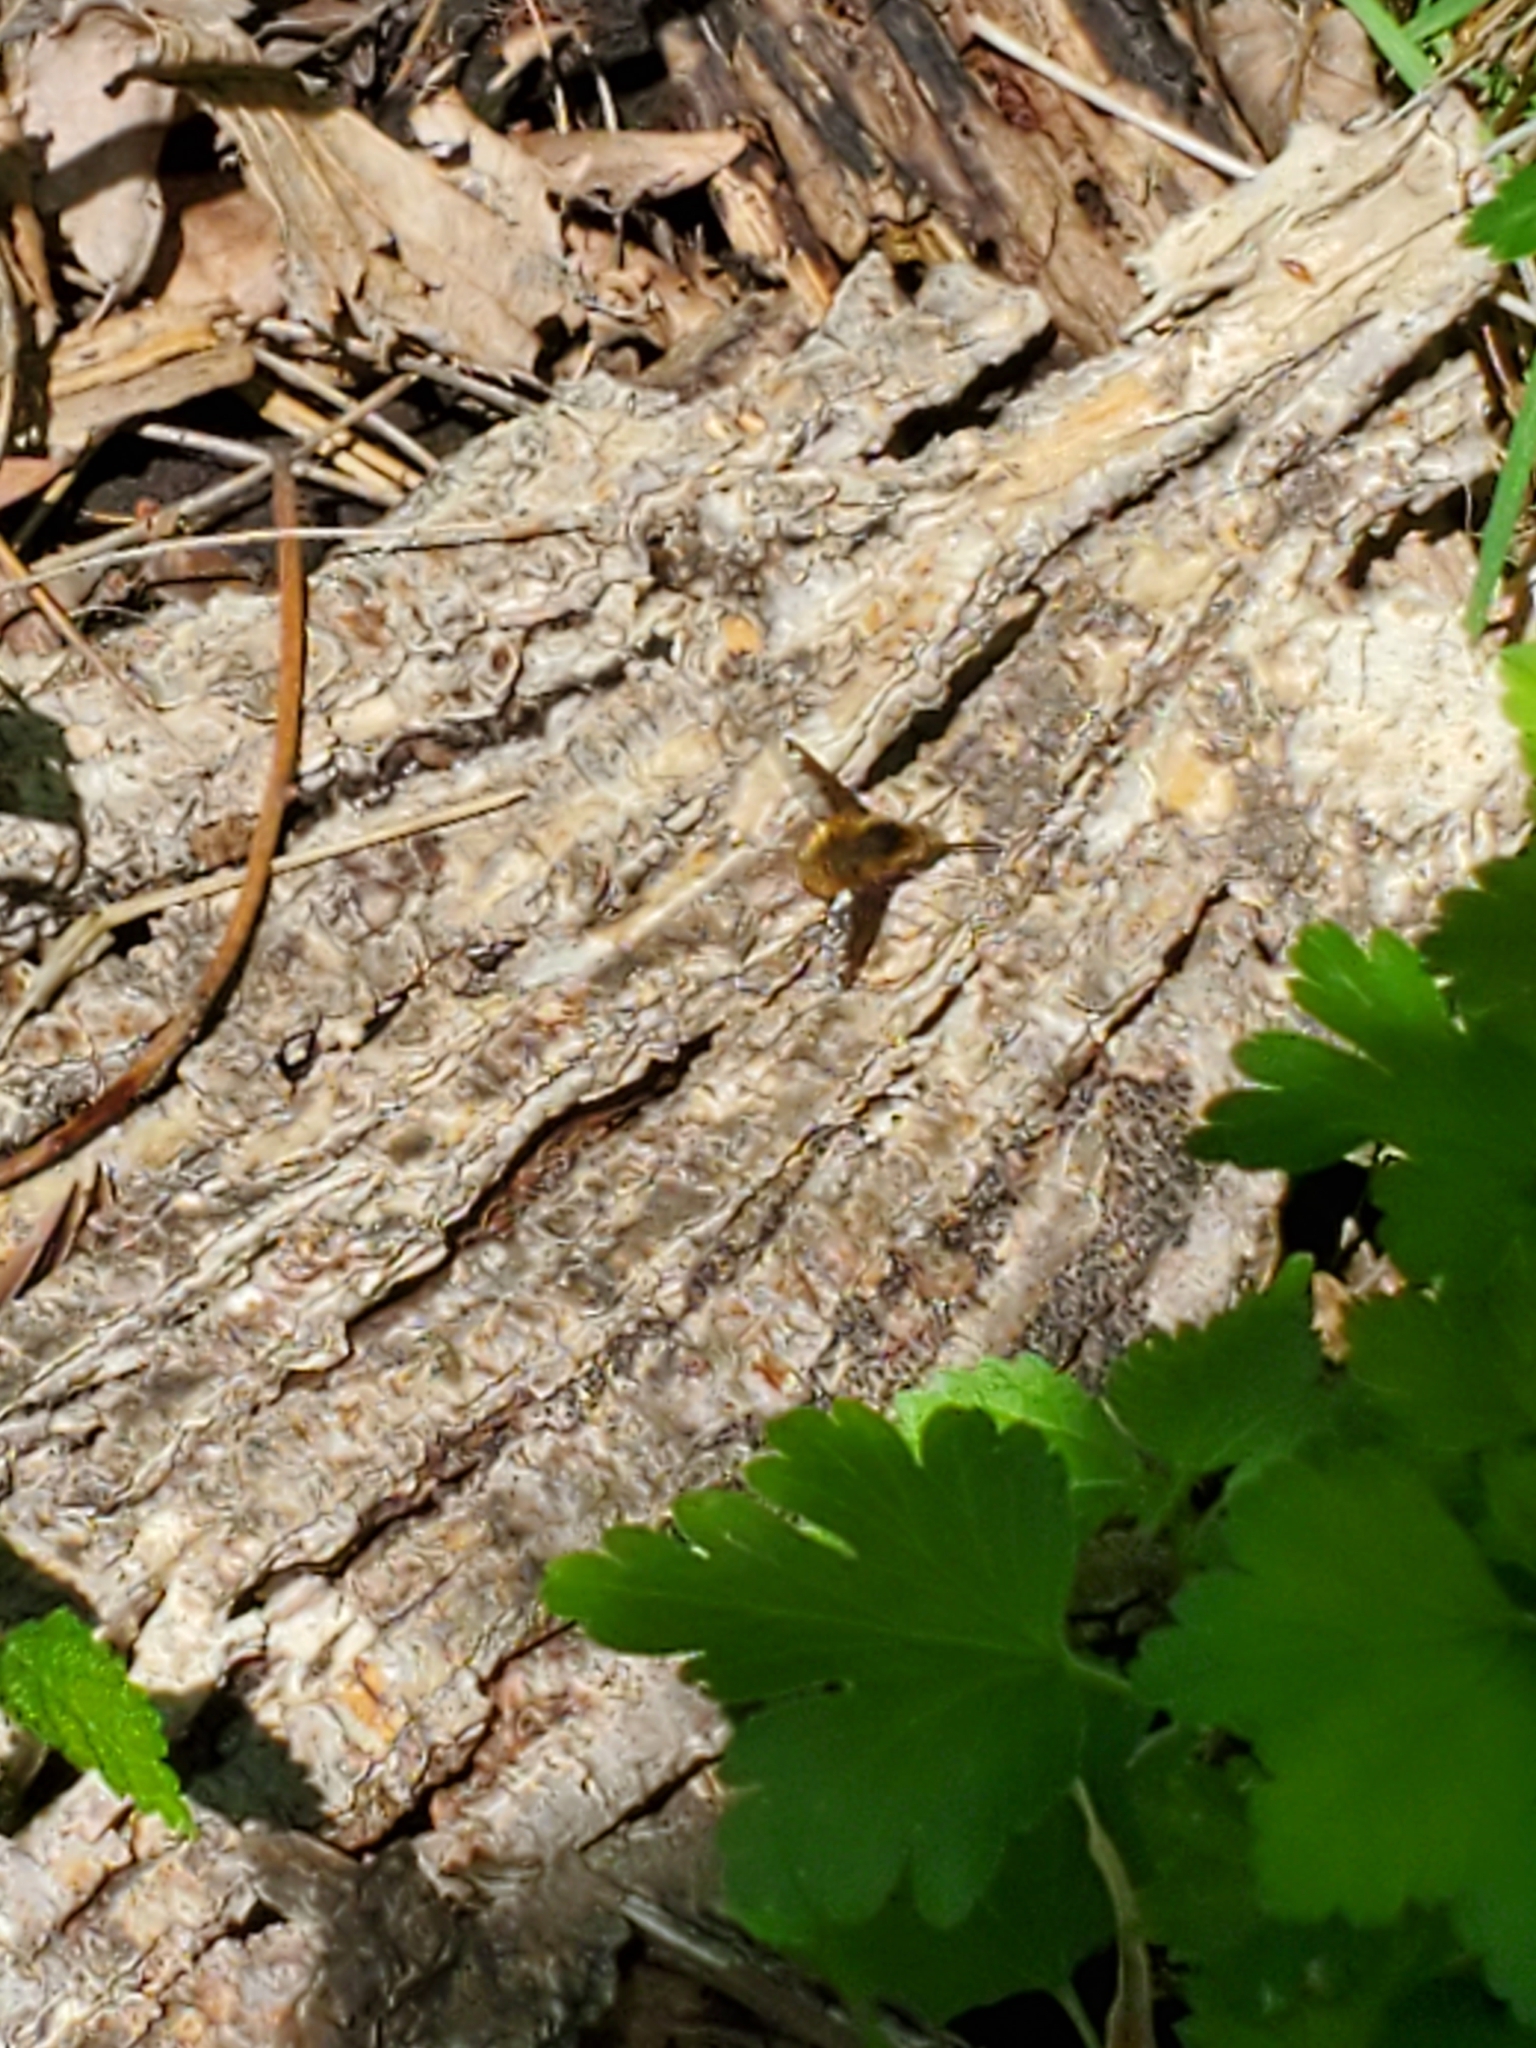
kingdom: Animalia
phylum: Arthropoda
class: Insecta
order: Diptera
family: Bombyliidae
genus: Bombylius
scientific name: Bombylius major
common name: Bee fly
